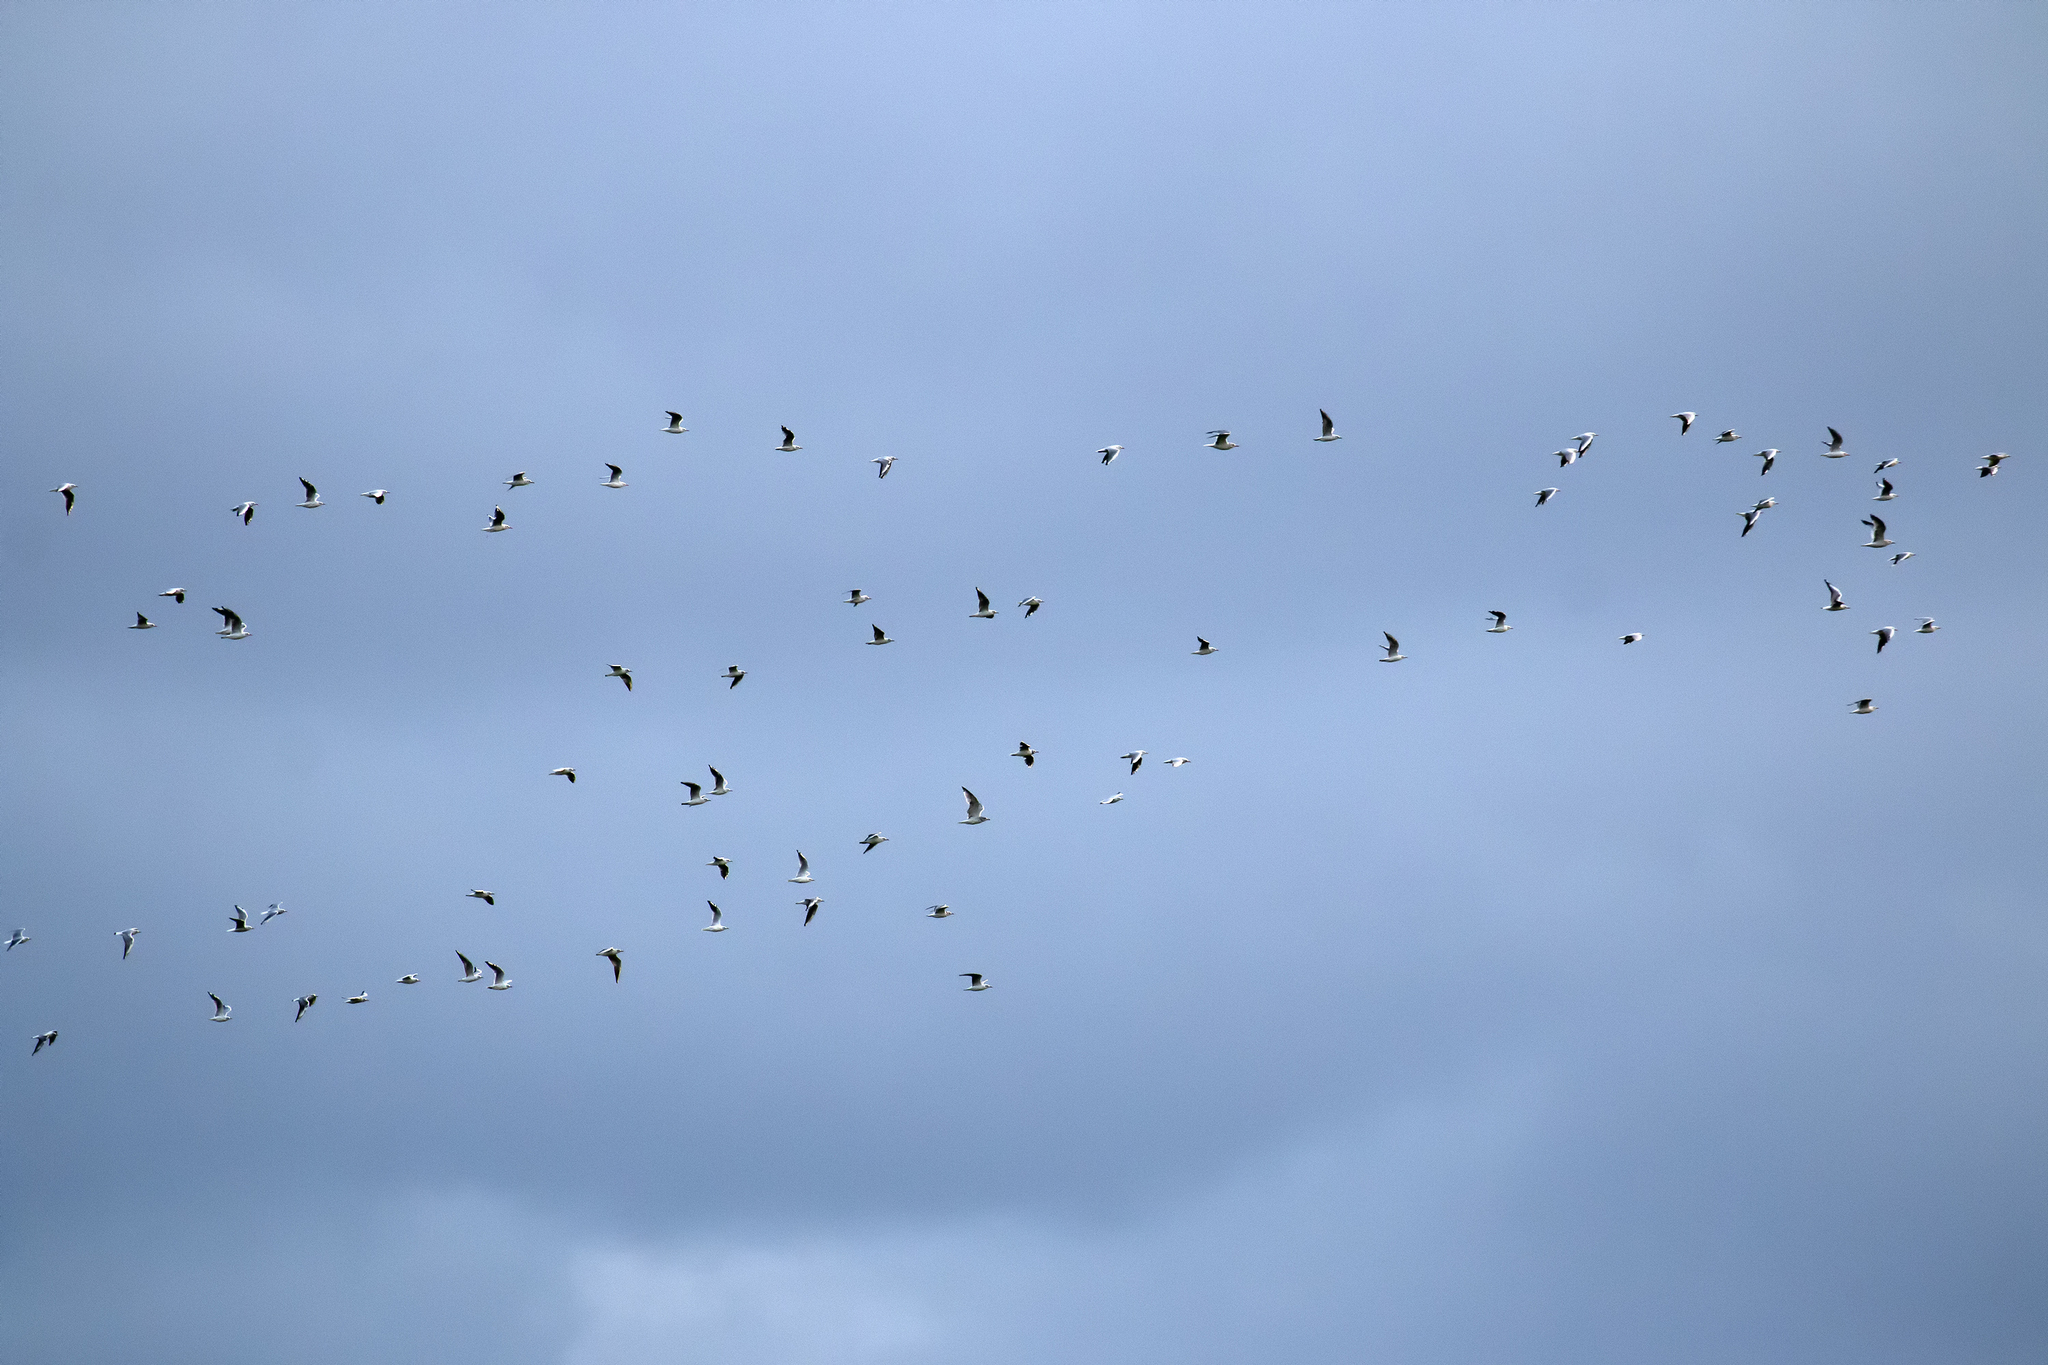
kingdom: Animalia
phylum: Chordata
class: Aves
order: Charadriiformes
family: Laridae
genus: Chroicocephalus
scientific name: Chroicocephalus ridibundus
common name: Black-headed gull
